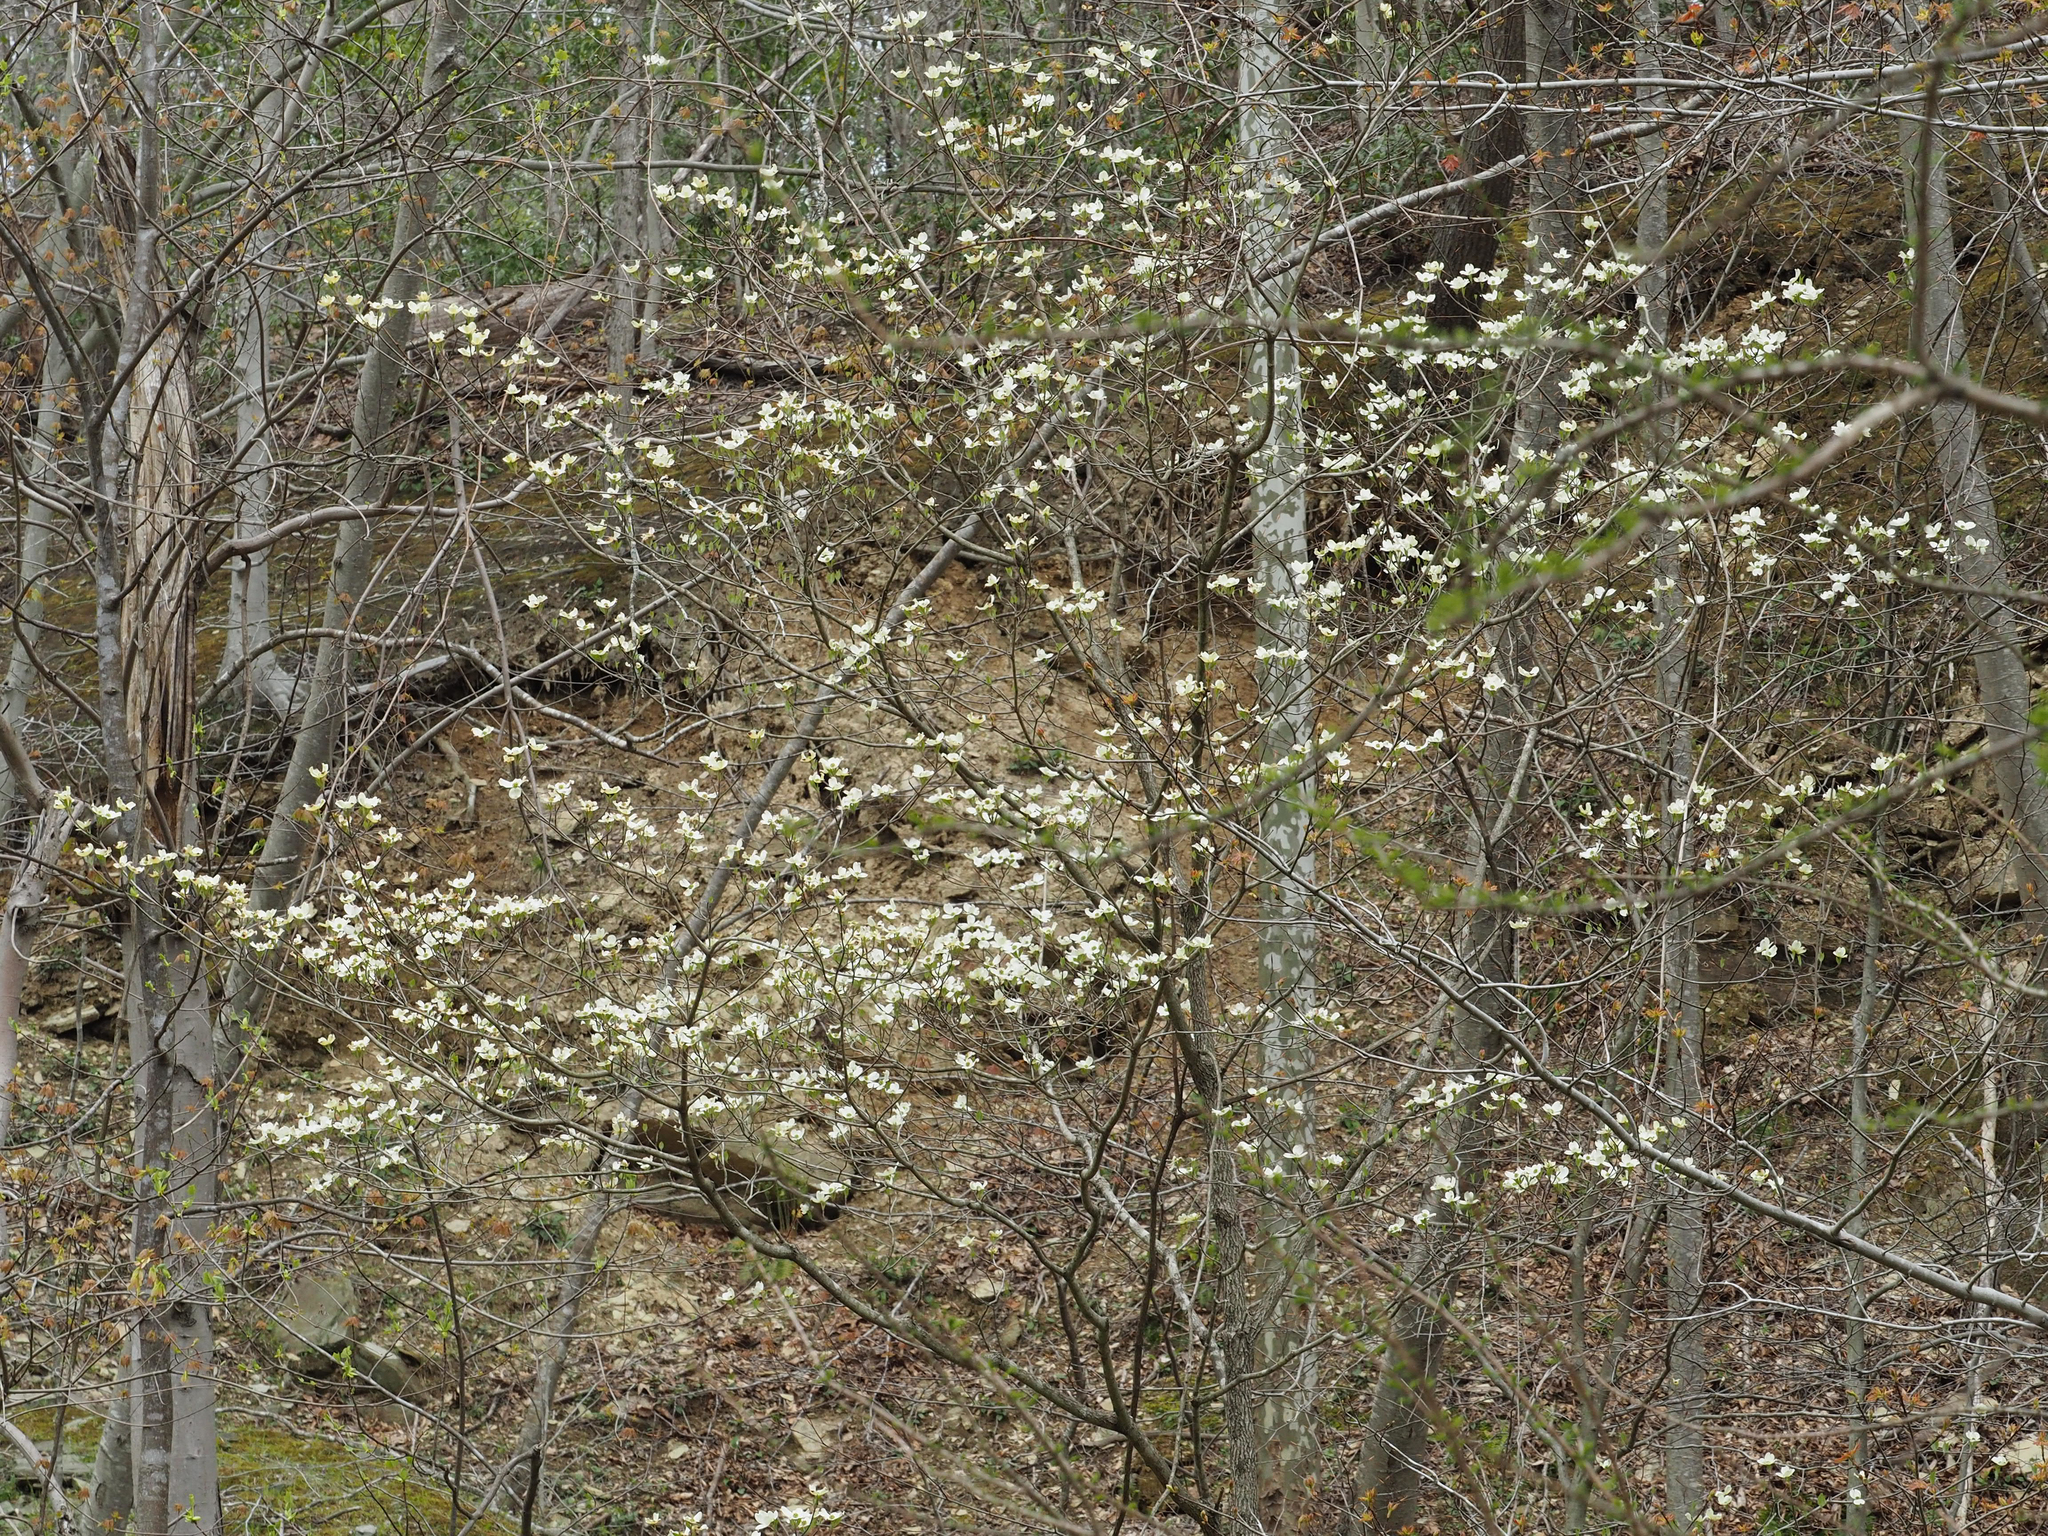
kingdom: Plantae
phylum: Tracheophyta
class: Magnoliopsida
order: Cornales
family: Cornaceae
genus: Cornus
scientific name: Cornus florida
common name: Flowering dogwood
